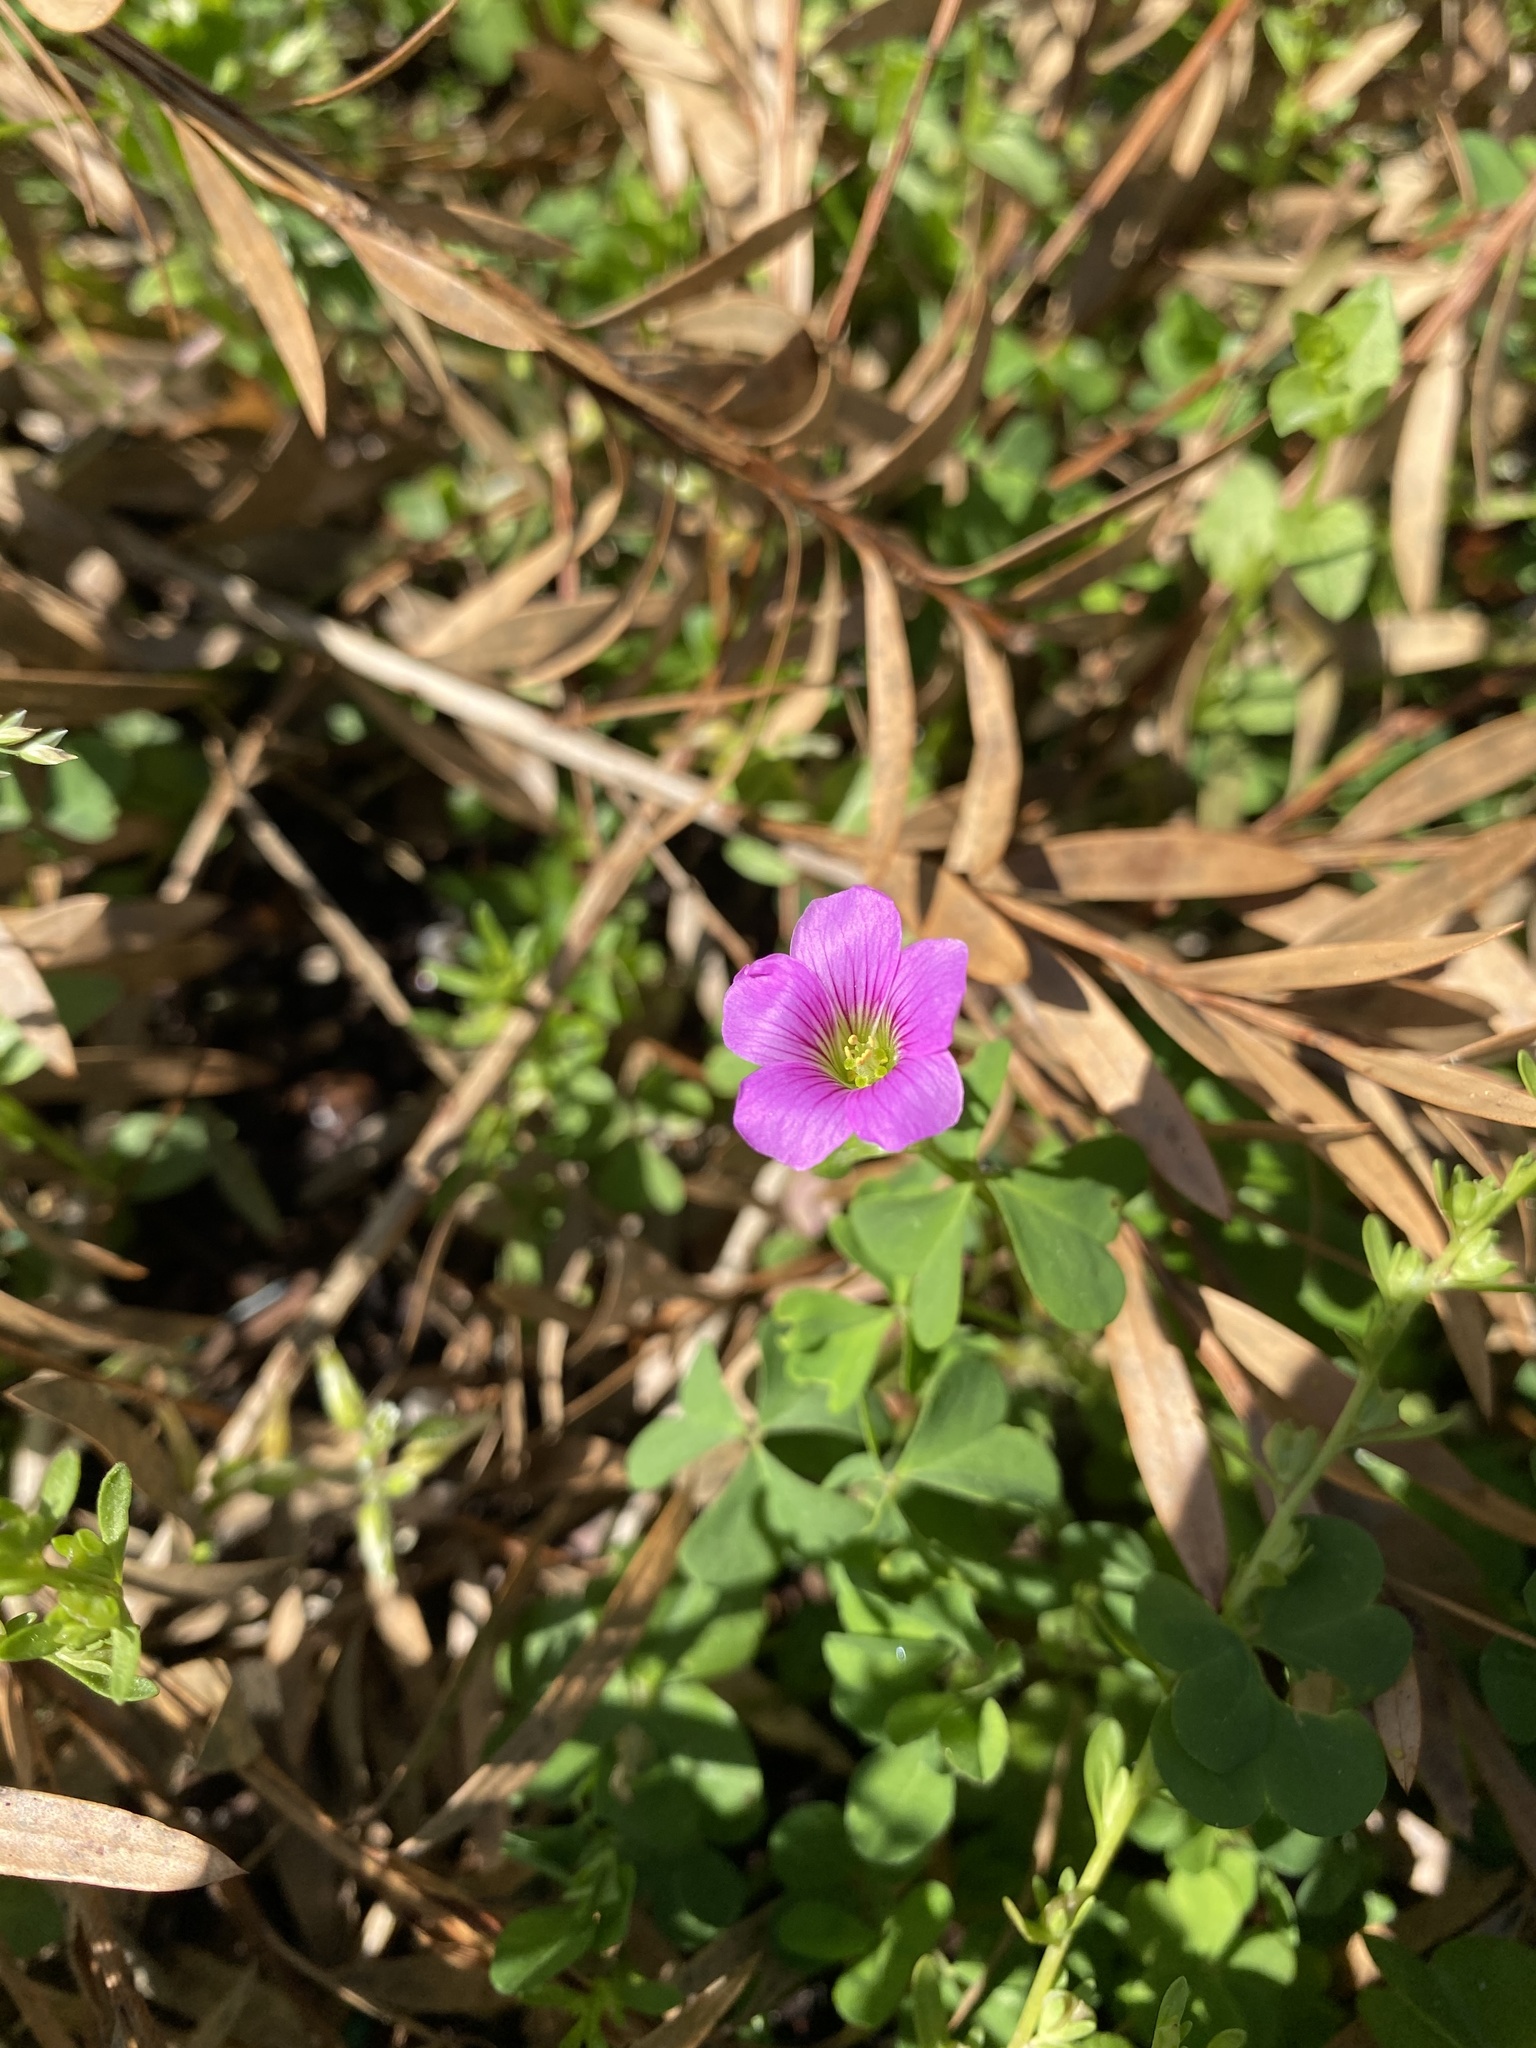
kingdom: Plantae
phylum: Tracheophyta
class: Magnoliopsida
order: Oxalidales
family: Oxalidaceae
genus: Oxalis
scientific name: Oxalis debilis
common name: Large-flowered pink-sorrel
